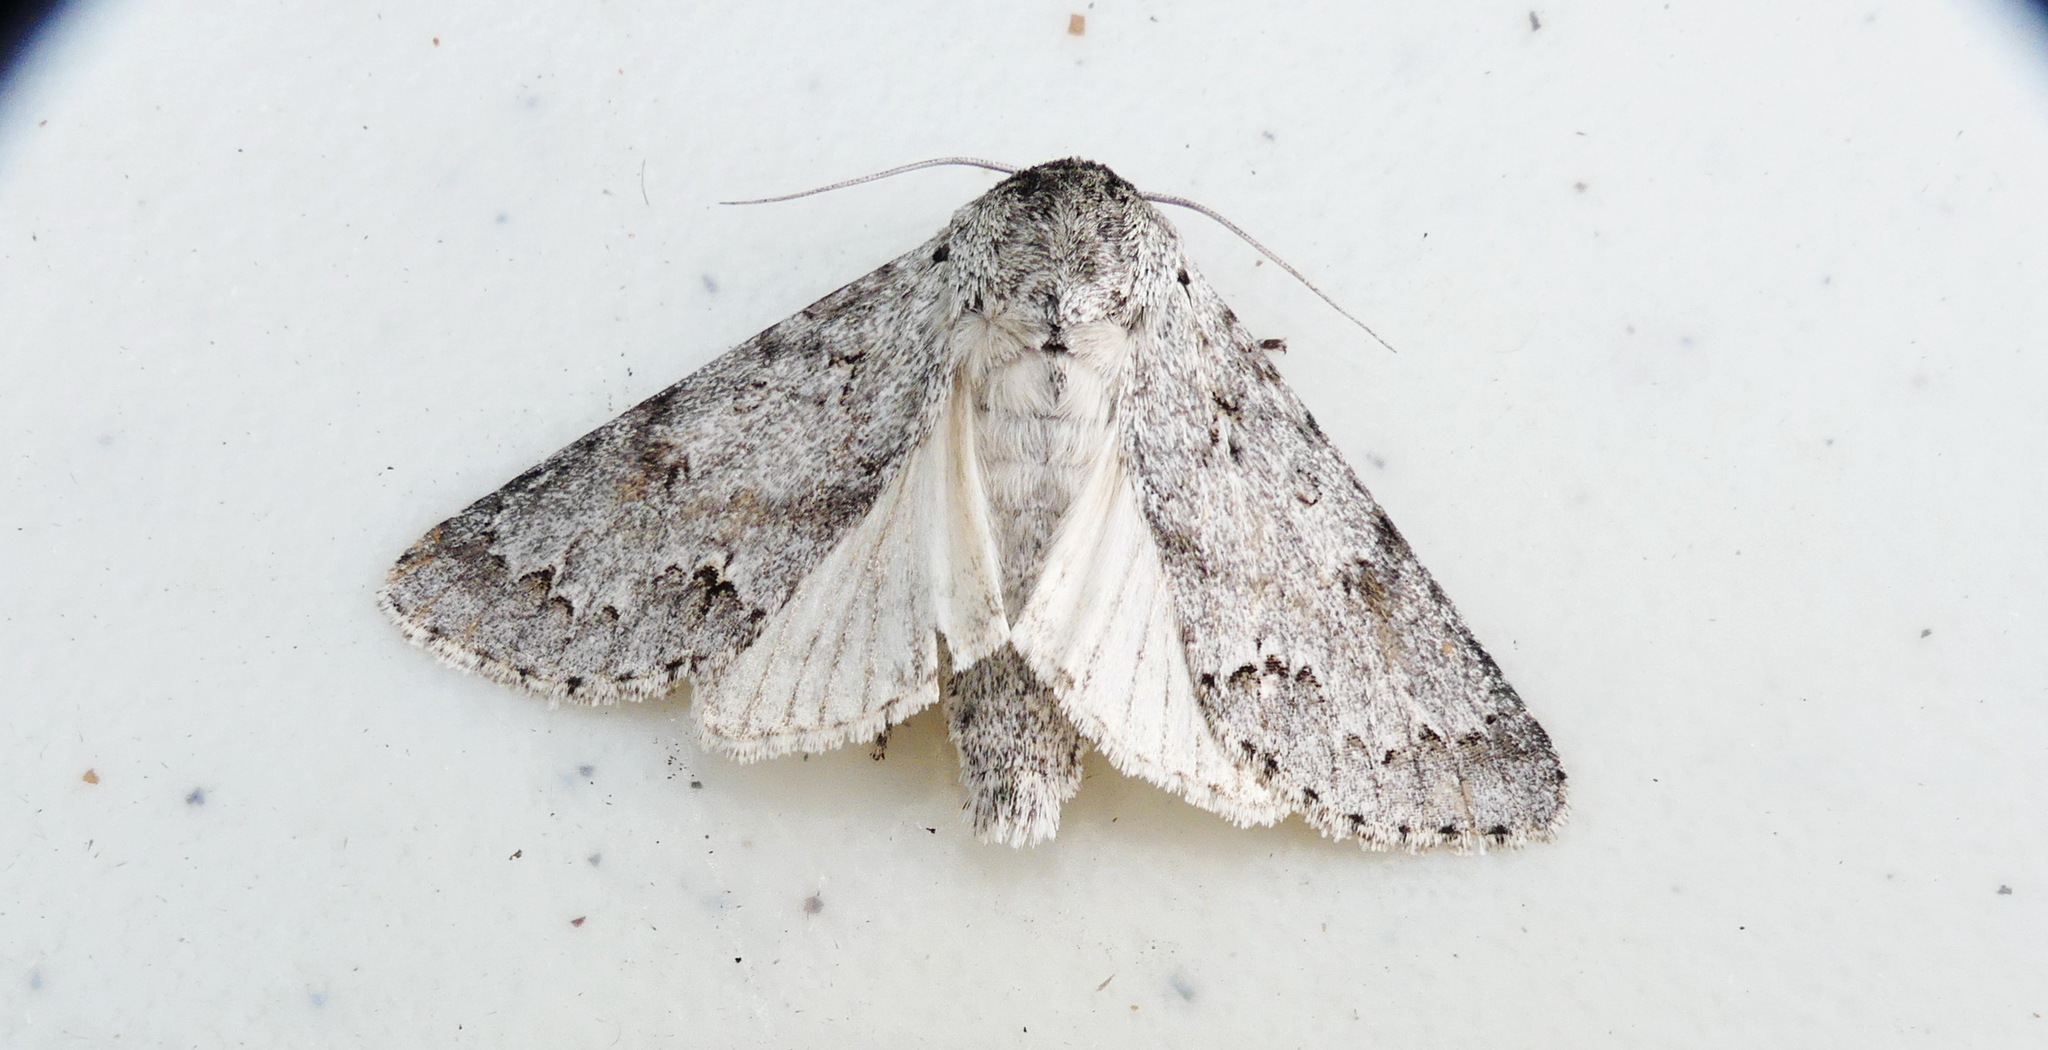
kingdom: Animalia
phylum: Arthropoda
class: Insecta
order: Lepidoptera
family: Noctuidae
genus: Acronicta
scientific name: Acronicta insita
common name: Large gray dagger
